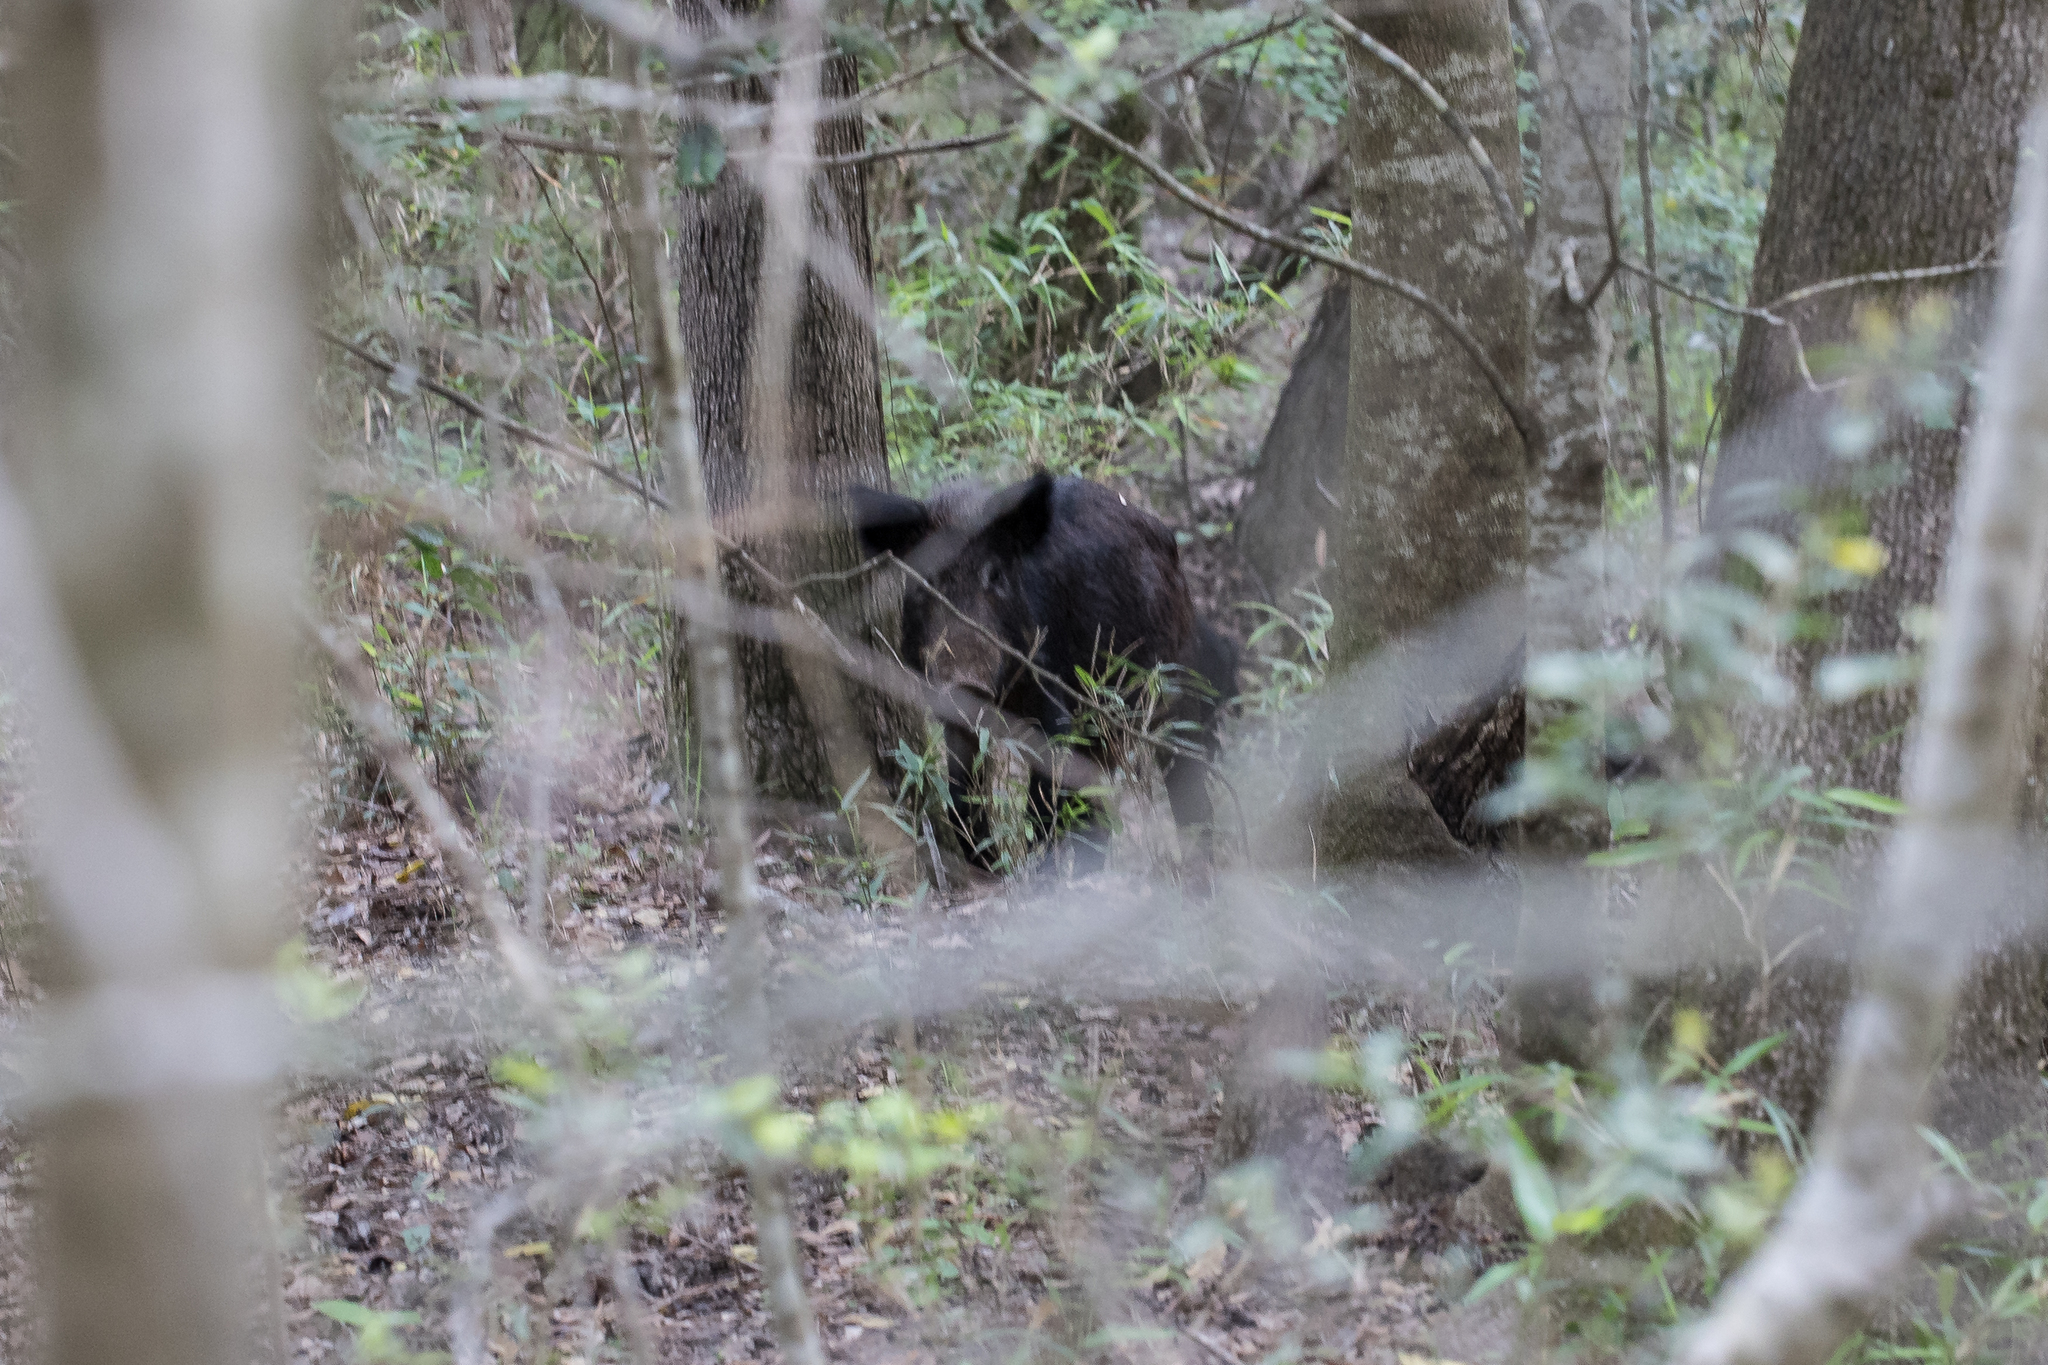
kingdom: Animalia
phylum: Chordata
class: Mammalia
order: Artiodactyla
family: Suidae
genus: Sus
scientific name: Sus scrofa
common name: Wild boar
